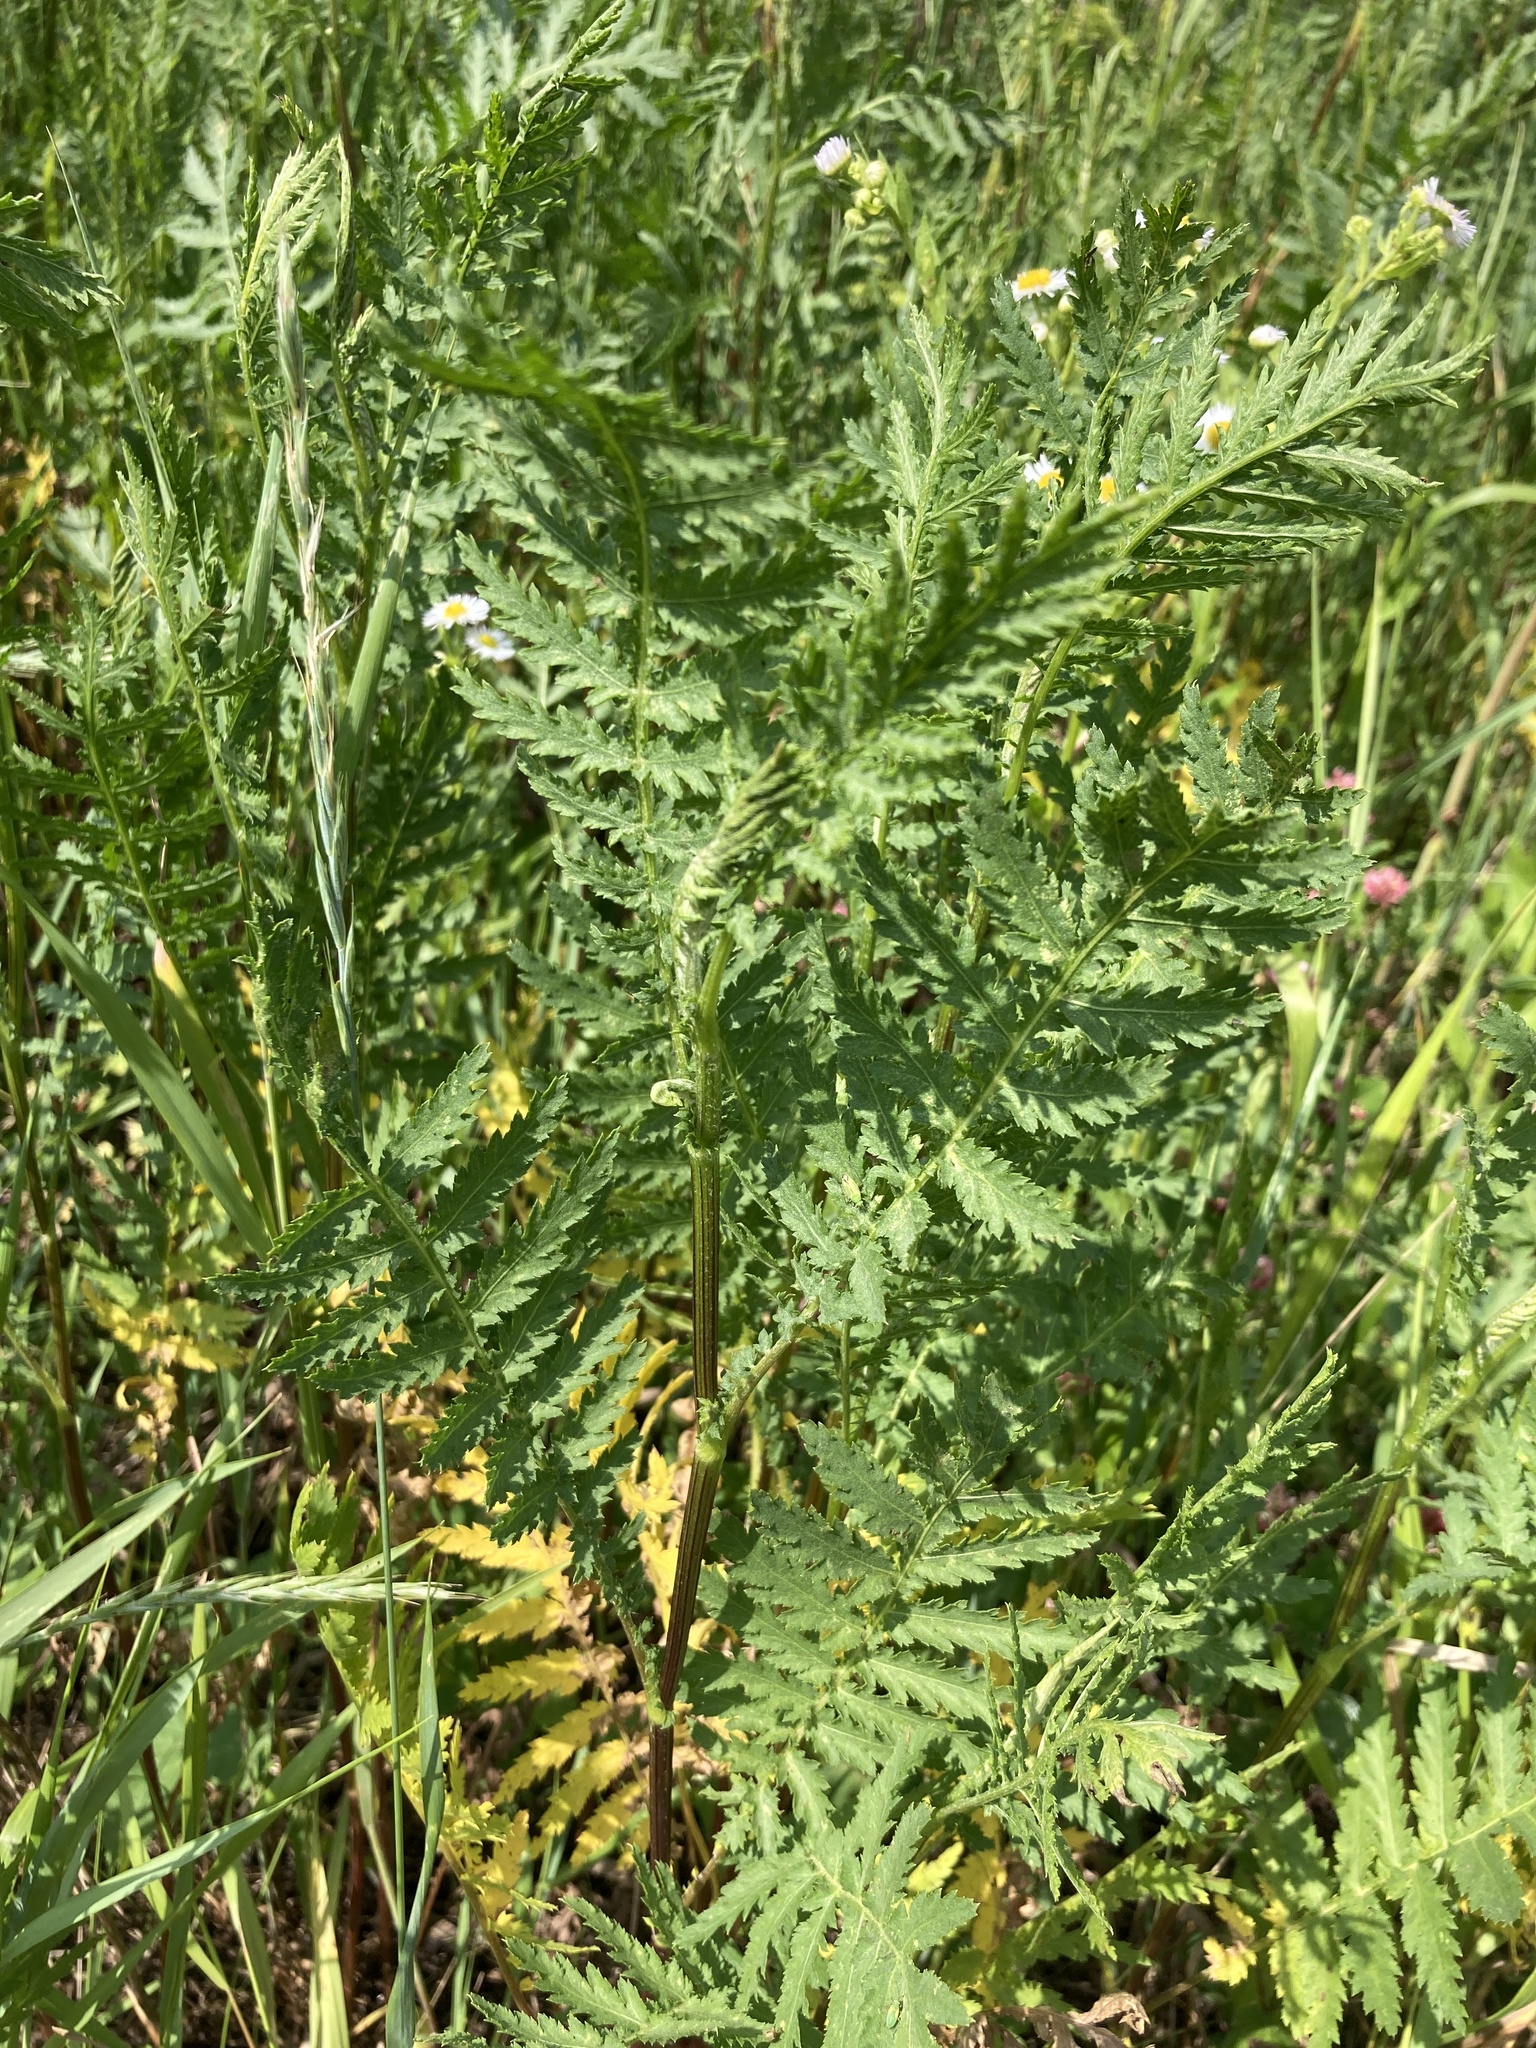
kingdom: Plantae
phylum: Tracheophyta
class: Magnoliopsida
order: Asterales
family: Asteraceae
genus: Tanacetum
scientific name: Tanacetum vulgare
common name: Common tansy
